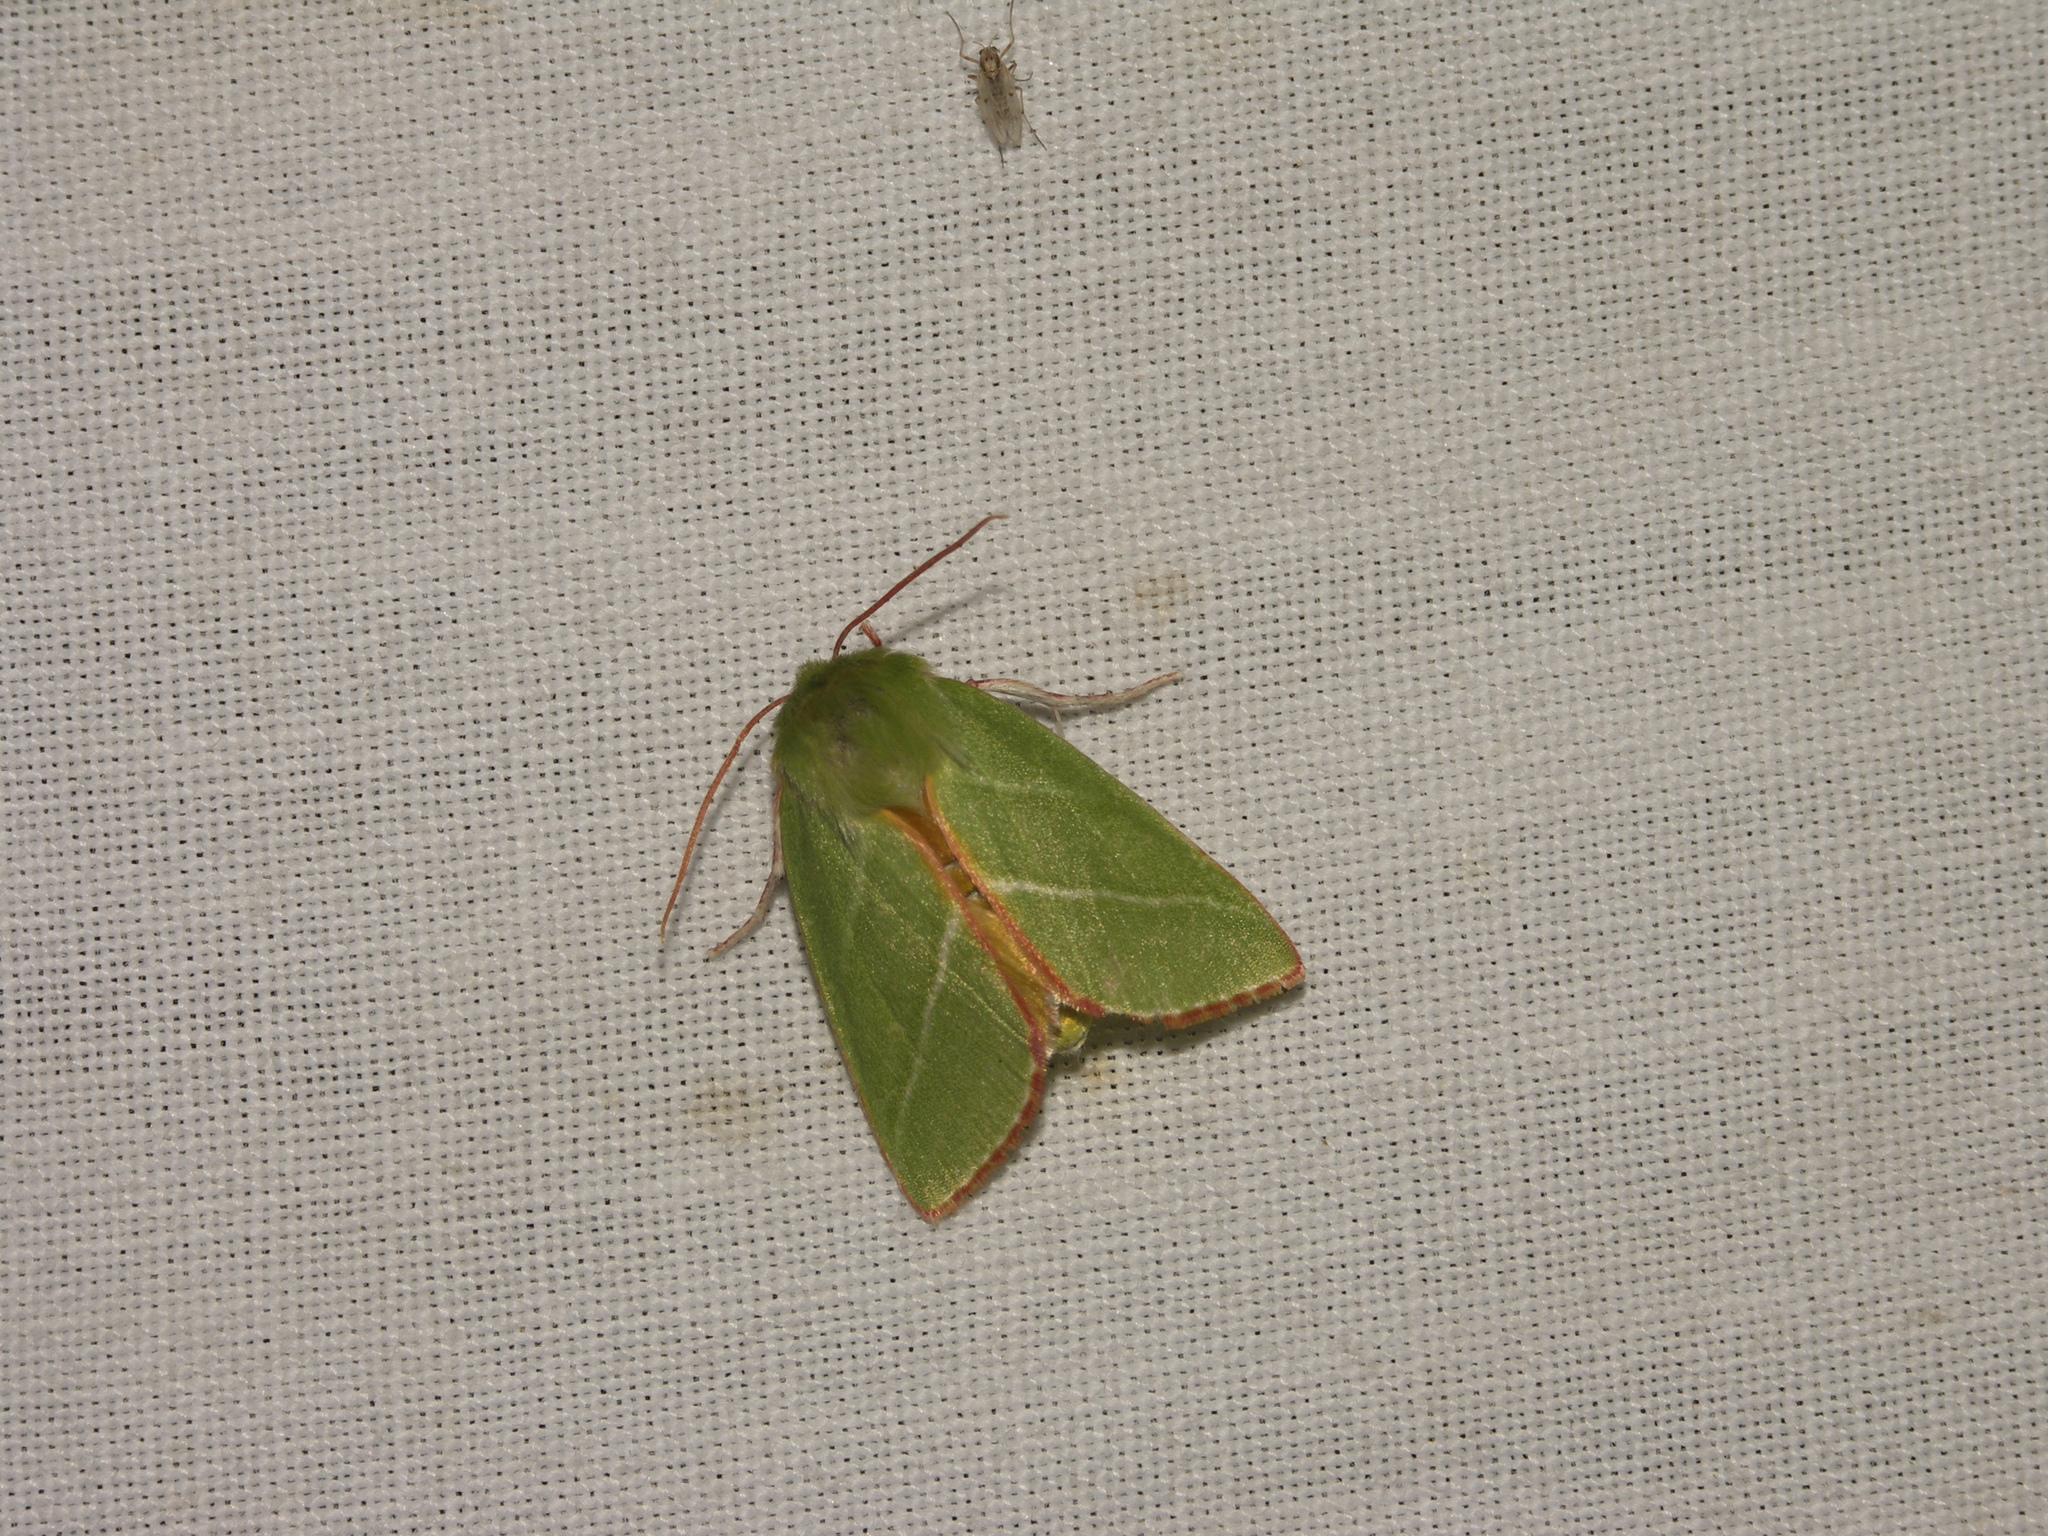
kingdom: Animalia
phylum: Arthropoda
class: Insecta
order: Lepidoptera
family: Nolidae
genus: Pseudoips
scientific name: Pseudoips prasinana
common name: Green silver-lines
